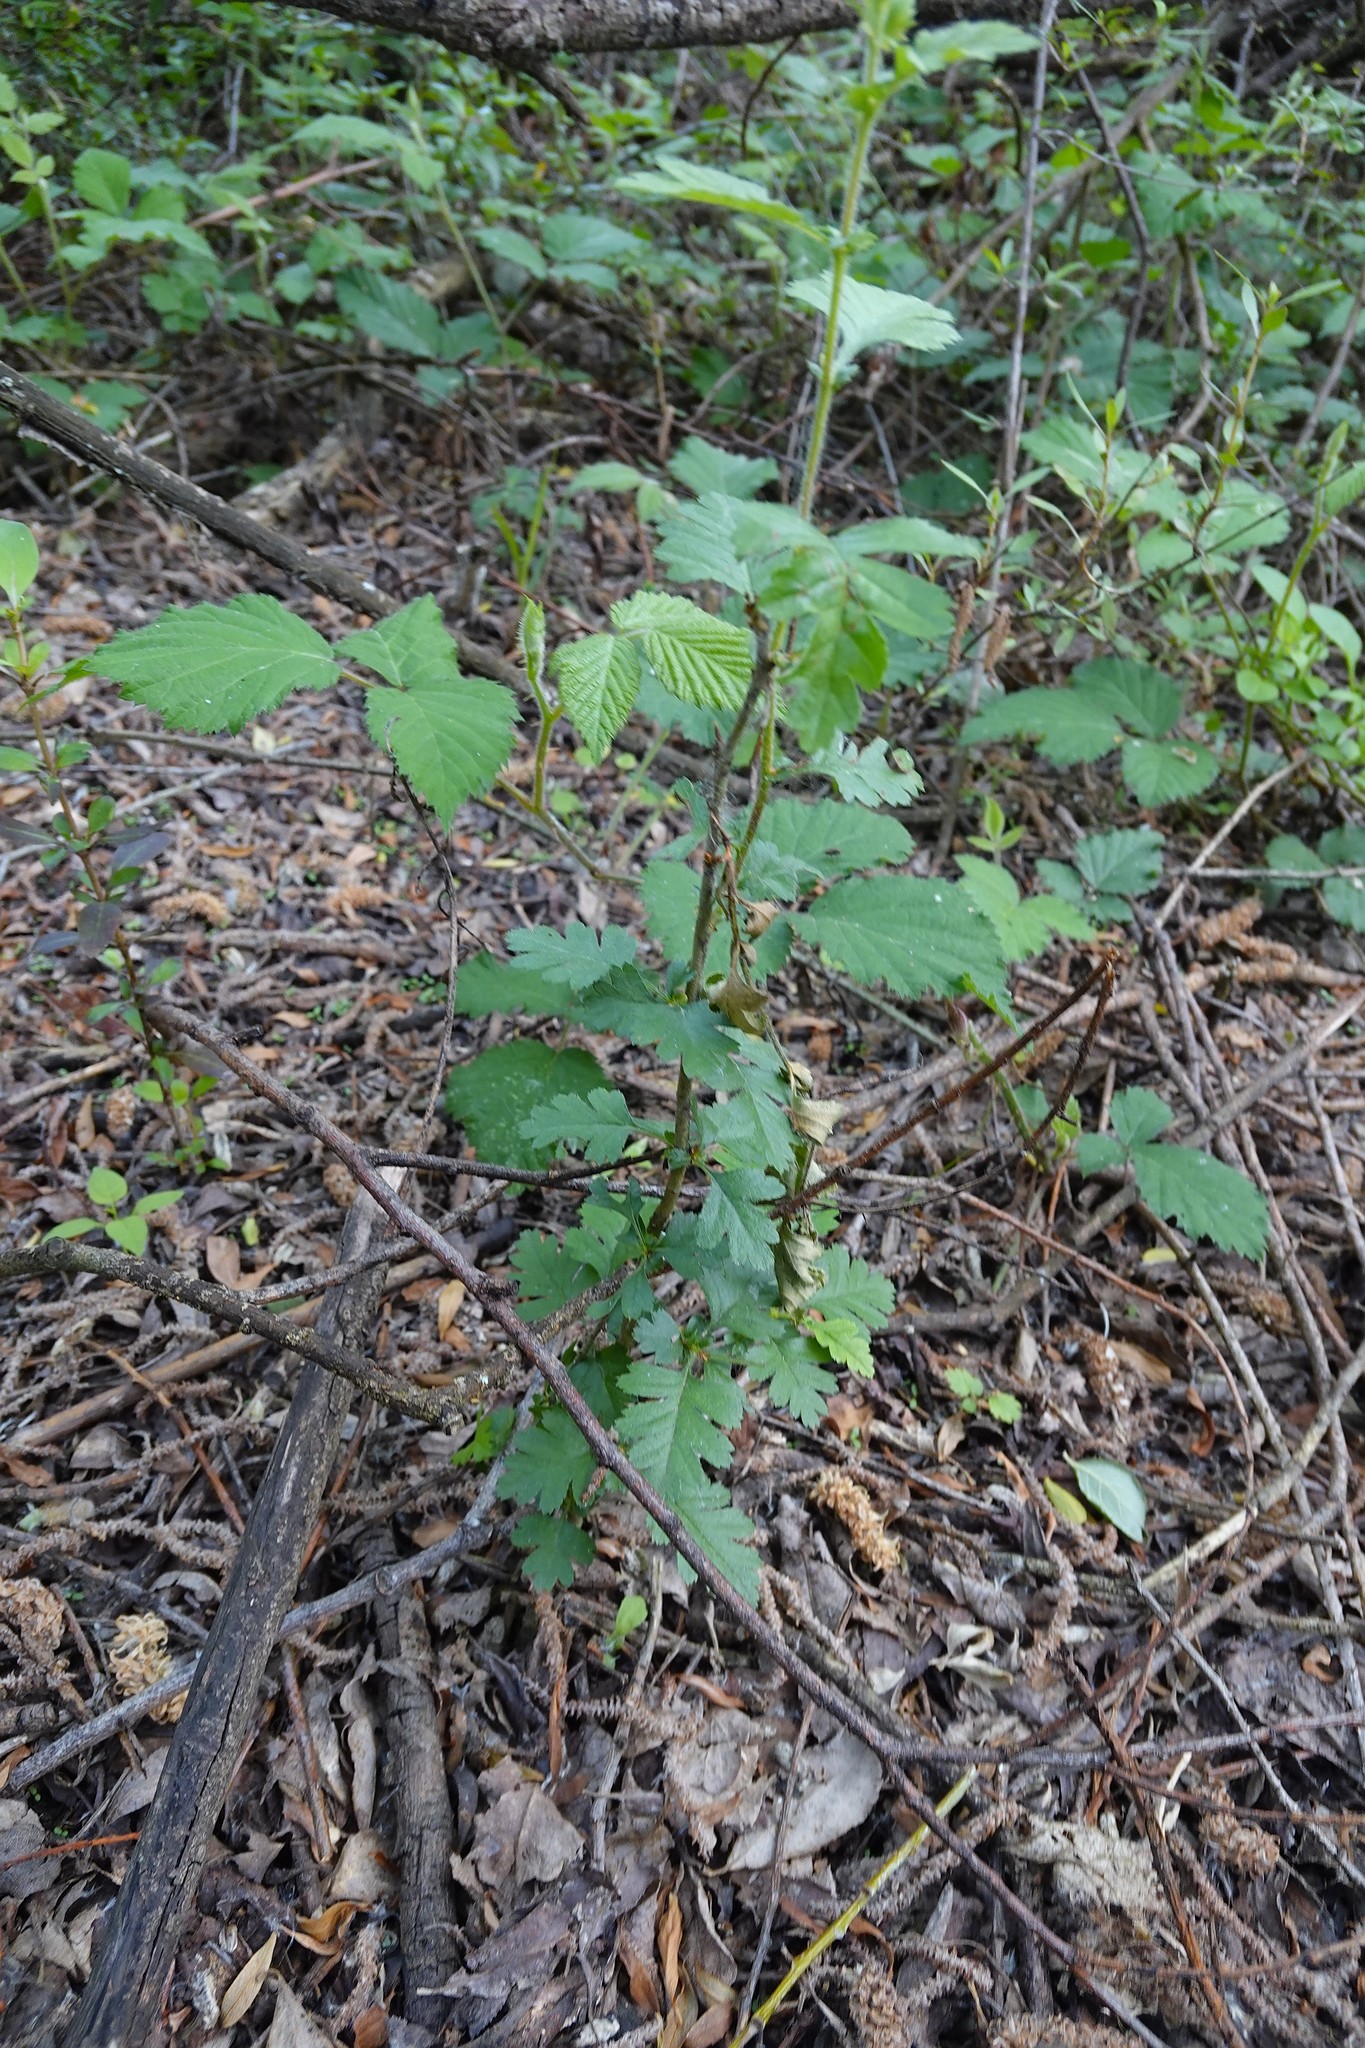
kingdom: Plantae
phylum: Tracheophyta
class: Magnoliopsida
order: Rosales
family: Rosaceae
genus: Crataegus
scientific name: Crataegus monogyna
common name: Hawthorn
